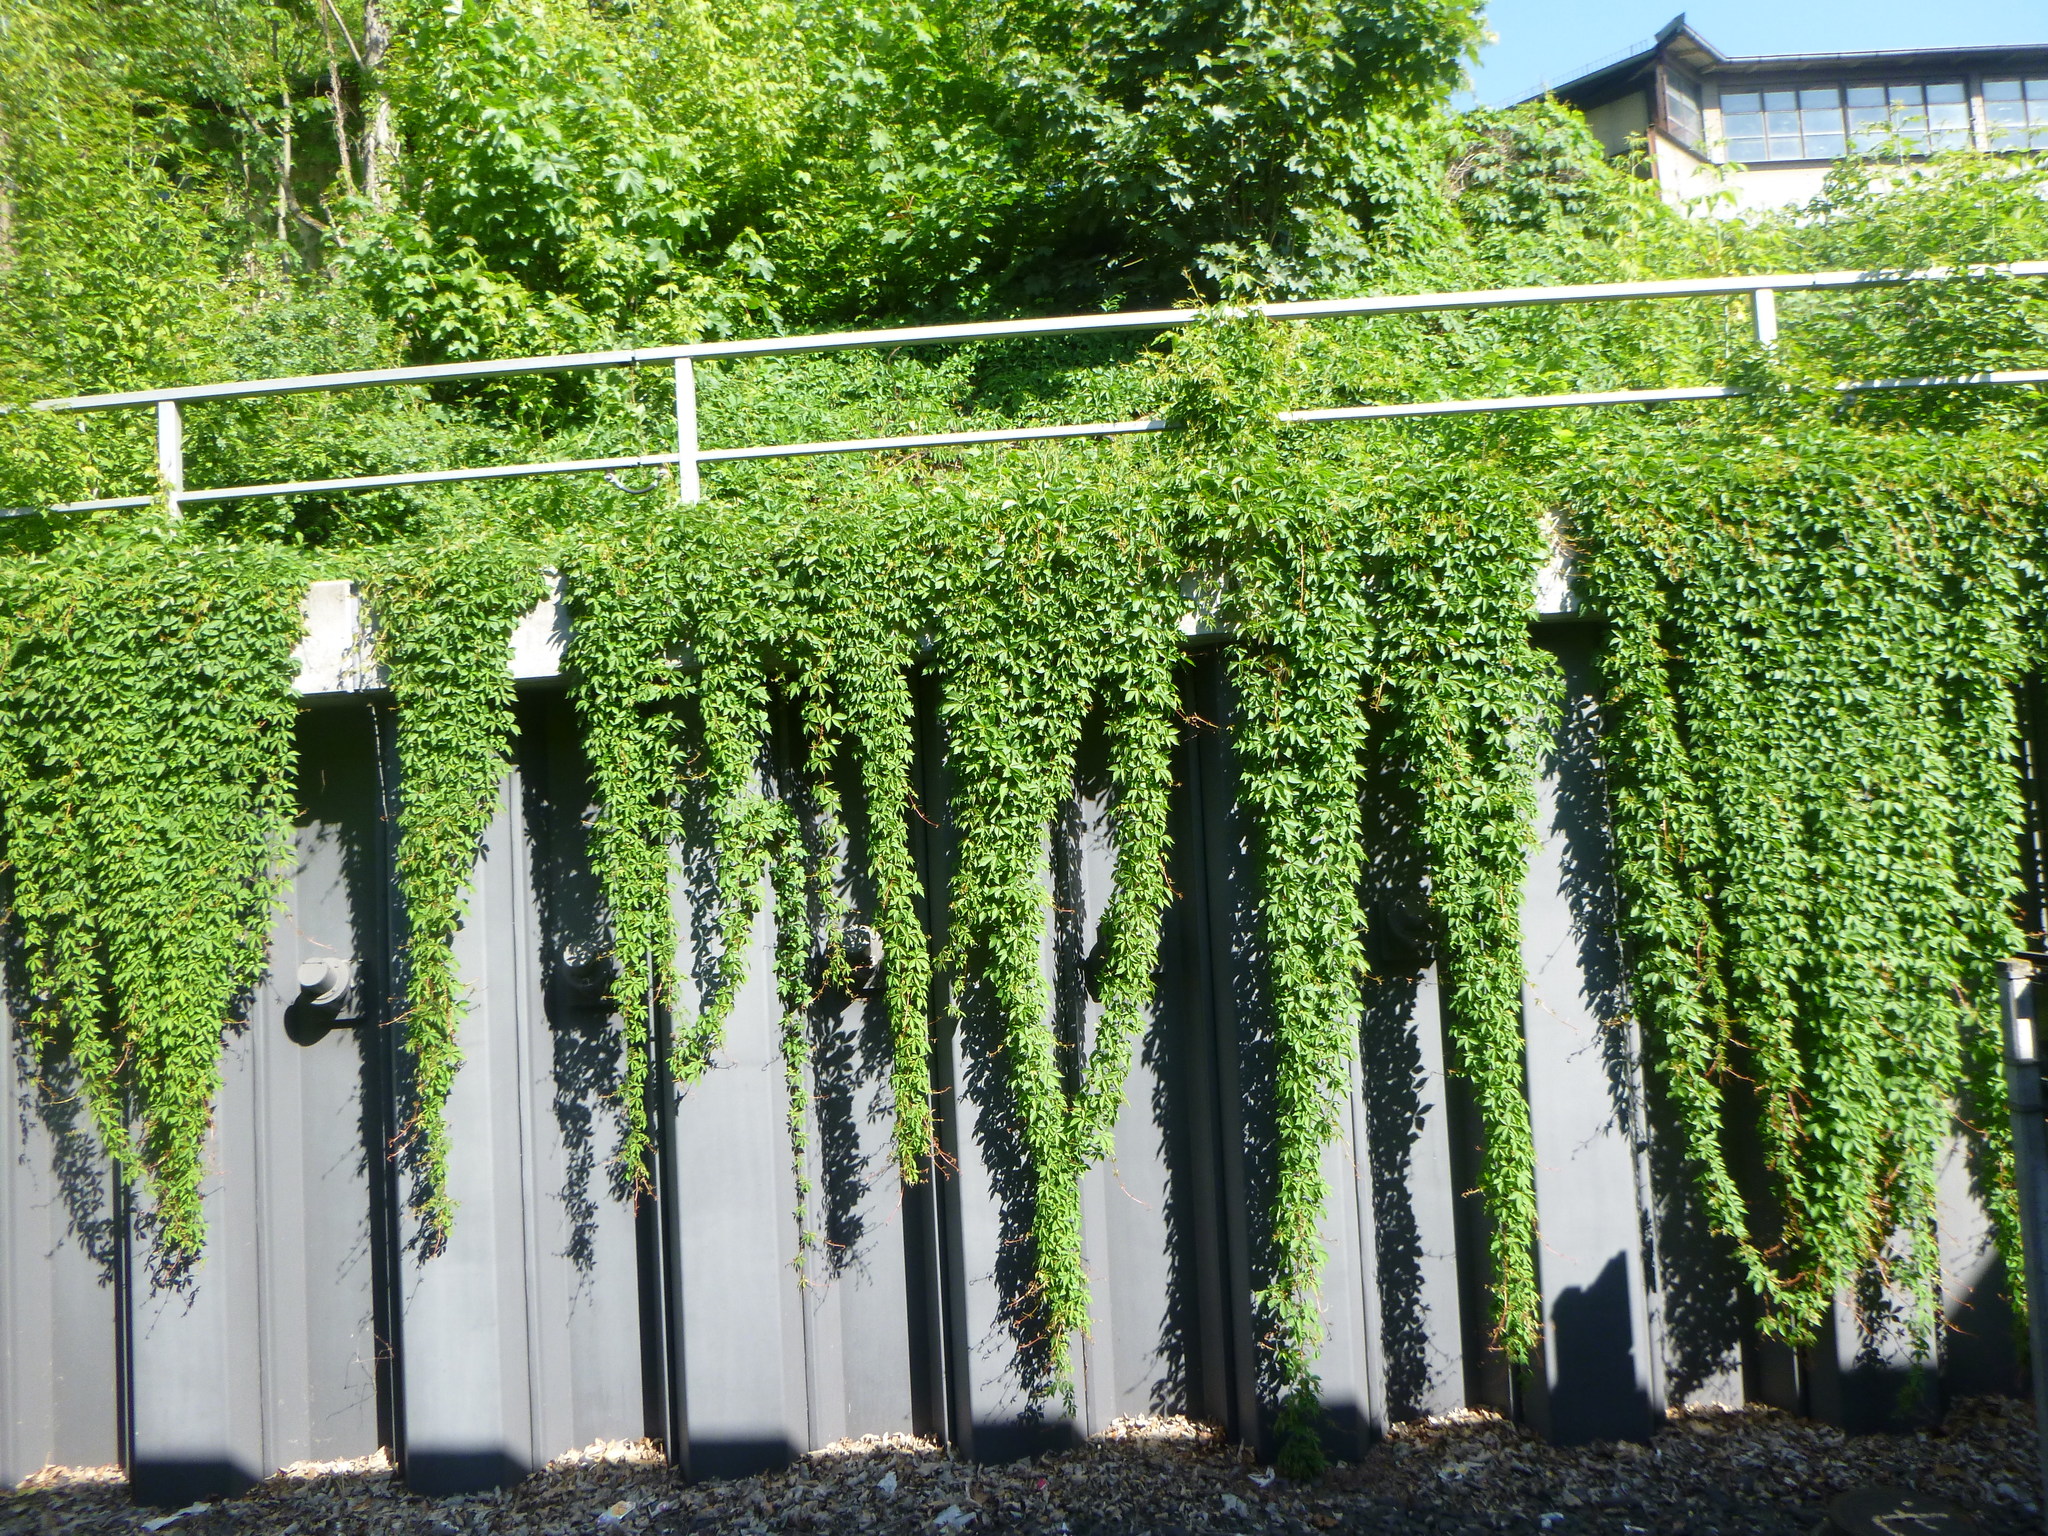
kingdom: Plantae
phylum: Tracheophyta
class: Magnoliopsida
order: Vitales
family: Vitaceae
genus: Parthenocissus
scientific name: Parthenocissus quinquefolia
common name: Virginia-creeper
